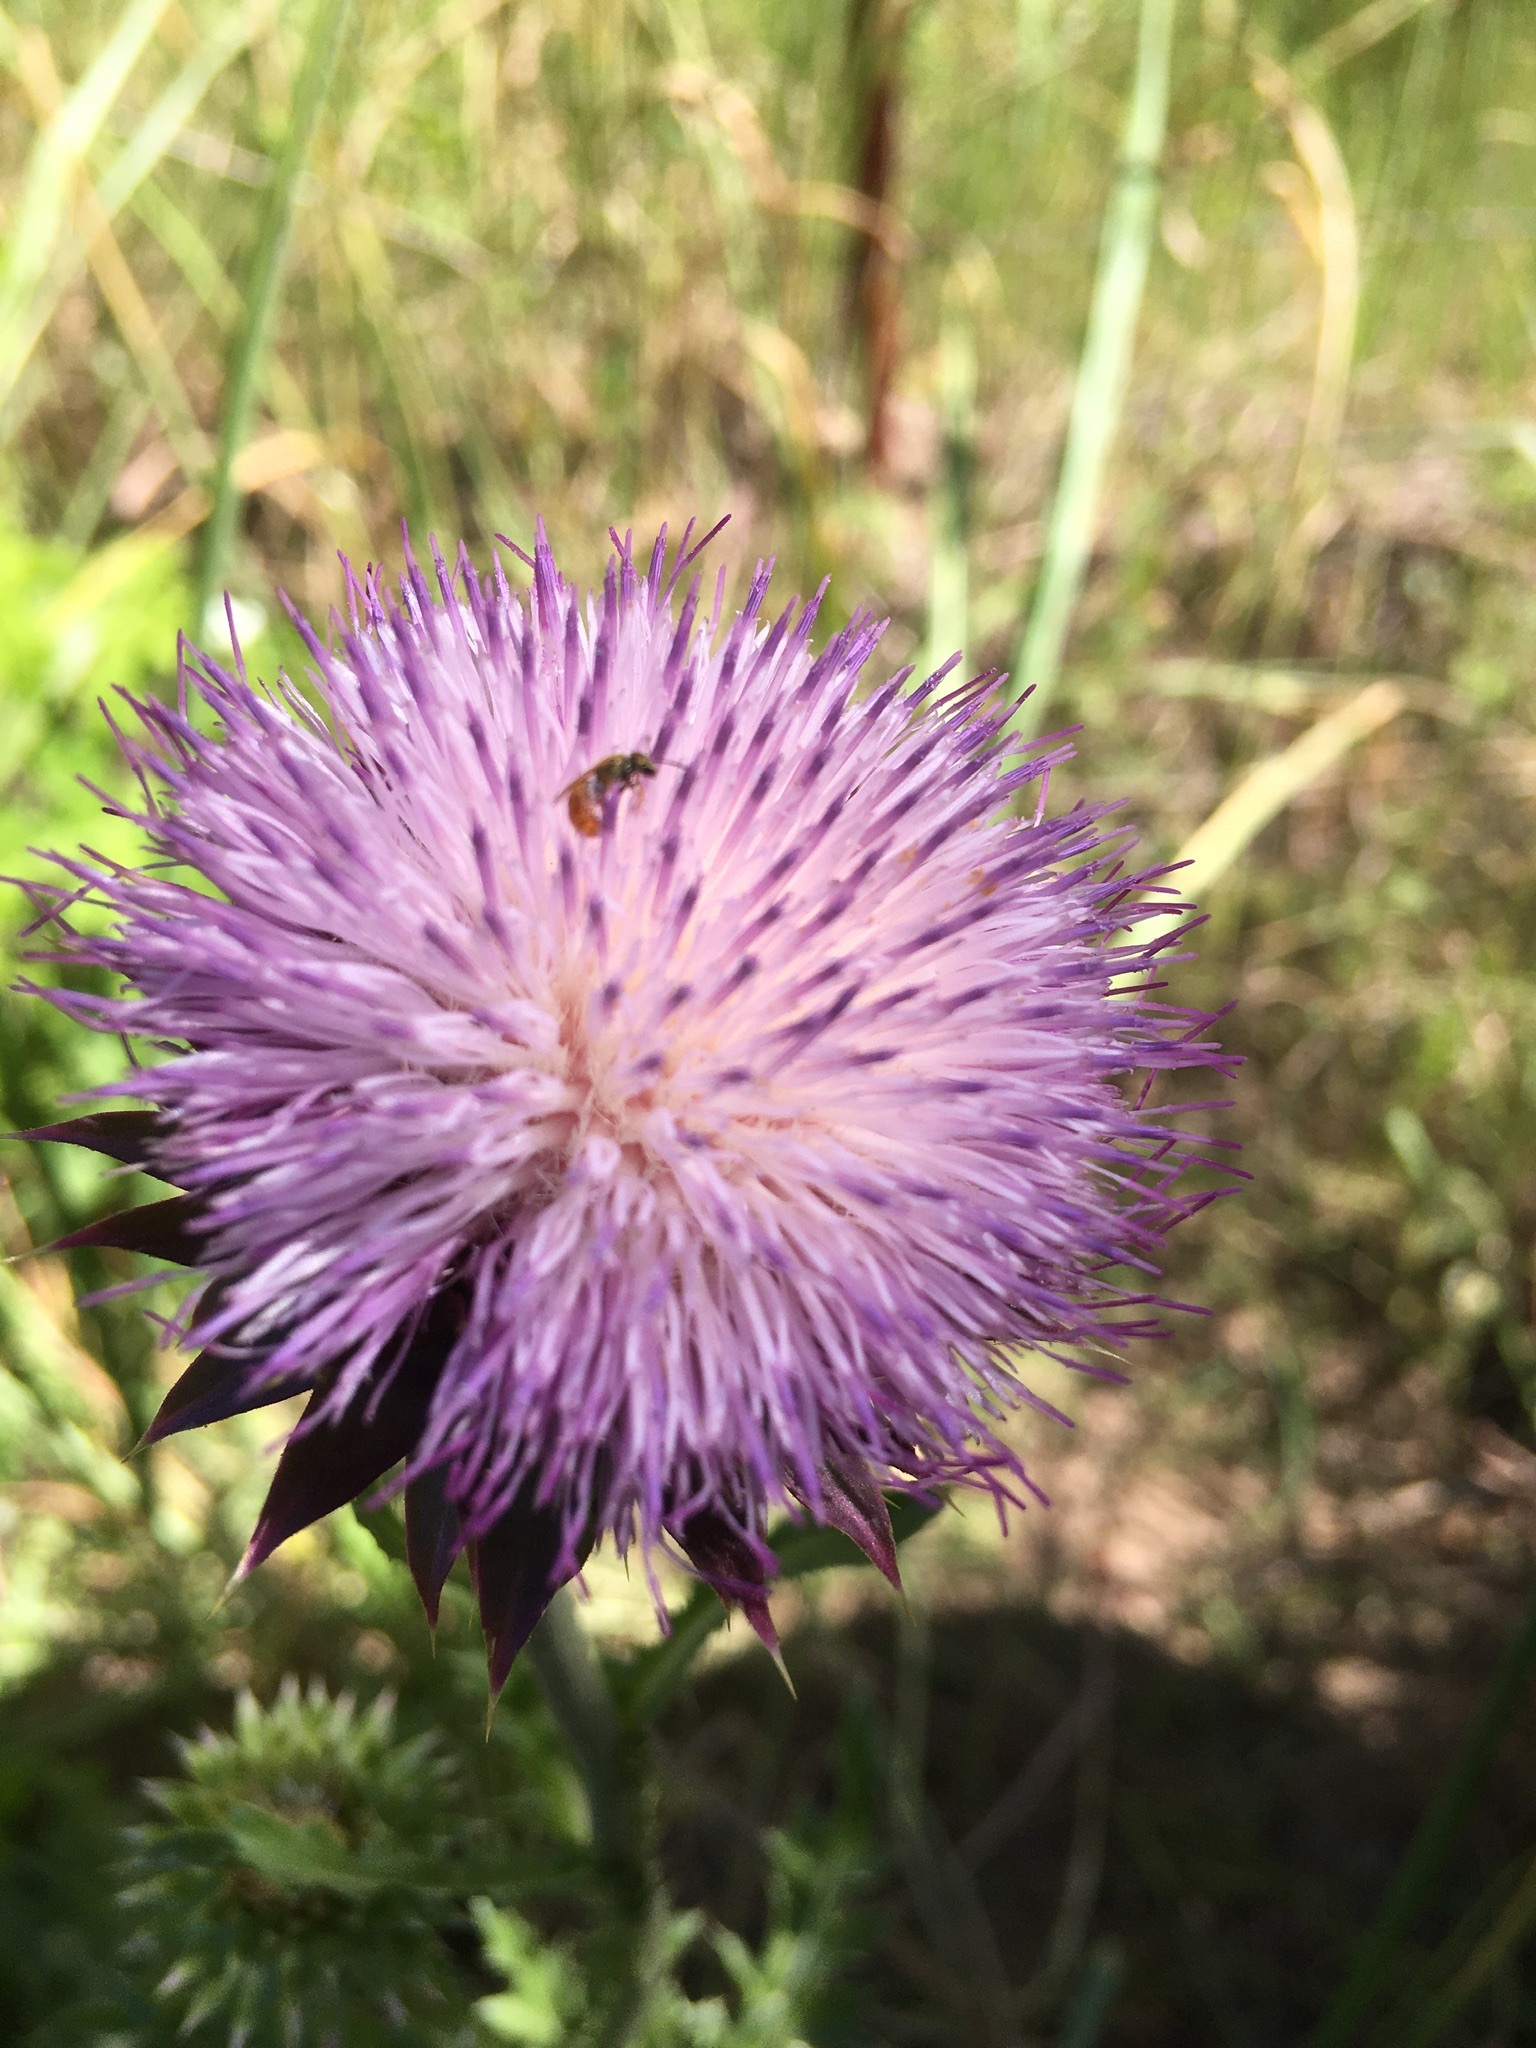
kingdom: Plantae
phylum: Tracheophyta
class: Magnoliopsida
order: Asterales
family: Asteraceae
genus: Carduus
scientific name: Carduus nutans
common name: Musk thistle
